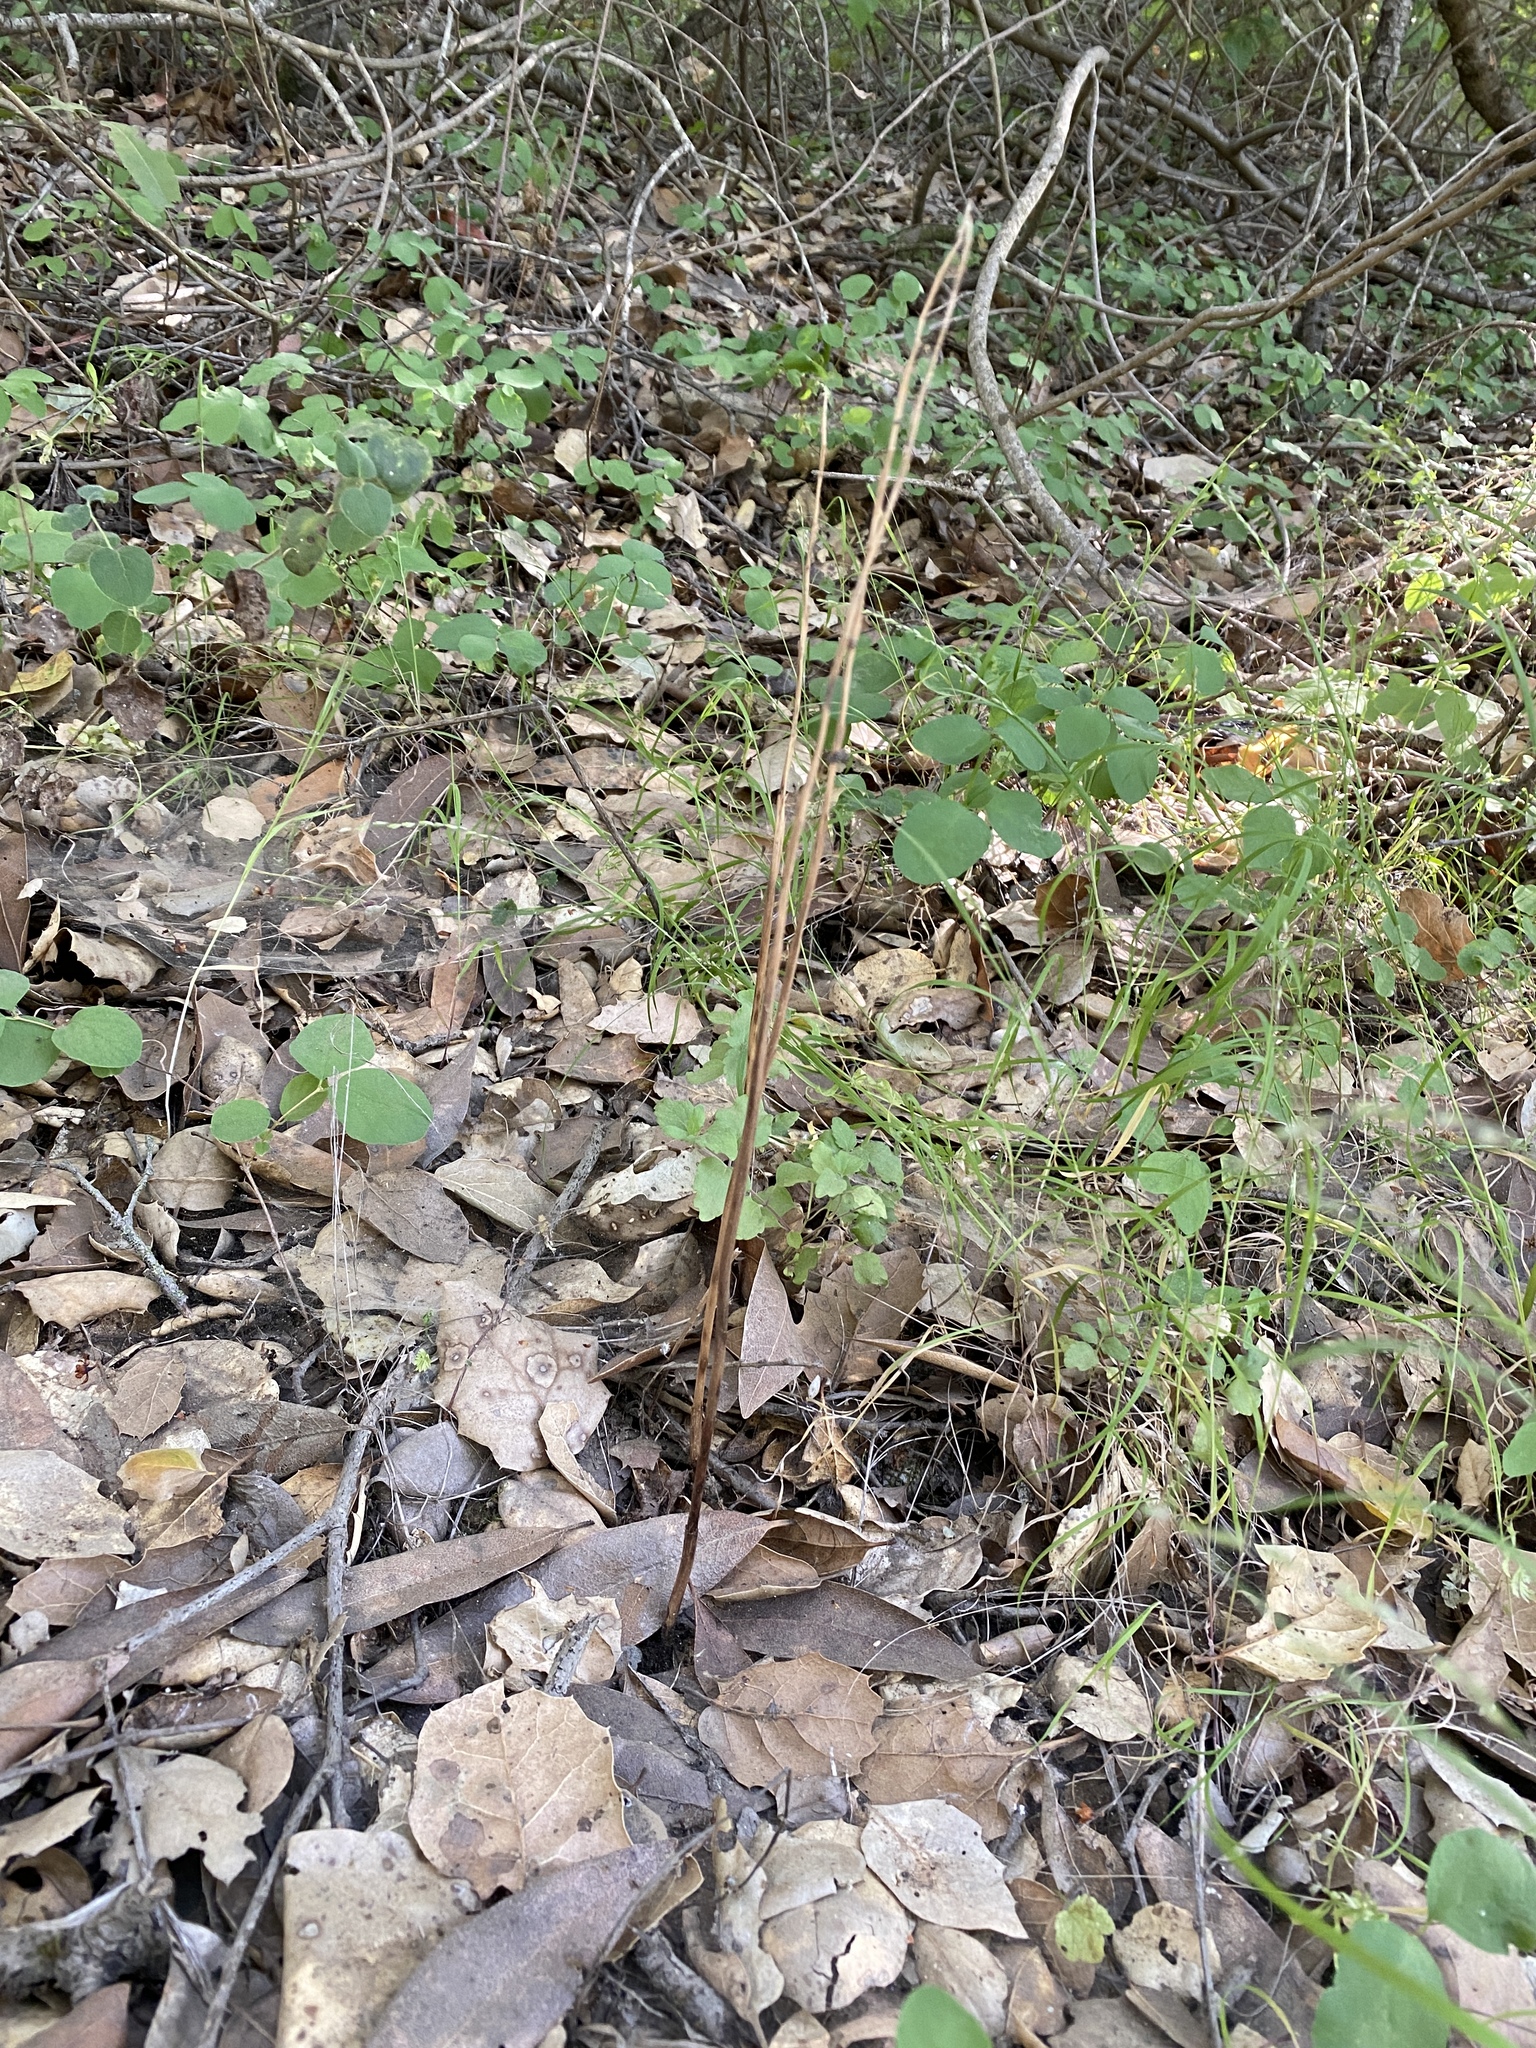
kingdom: Plantae
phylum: Tracheophyta
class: Liliopsida
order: Asparagales
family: Orchidaceae
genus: Corallorhiza
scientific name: Corallorhiza striata
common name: Hooded coralroot
